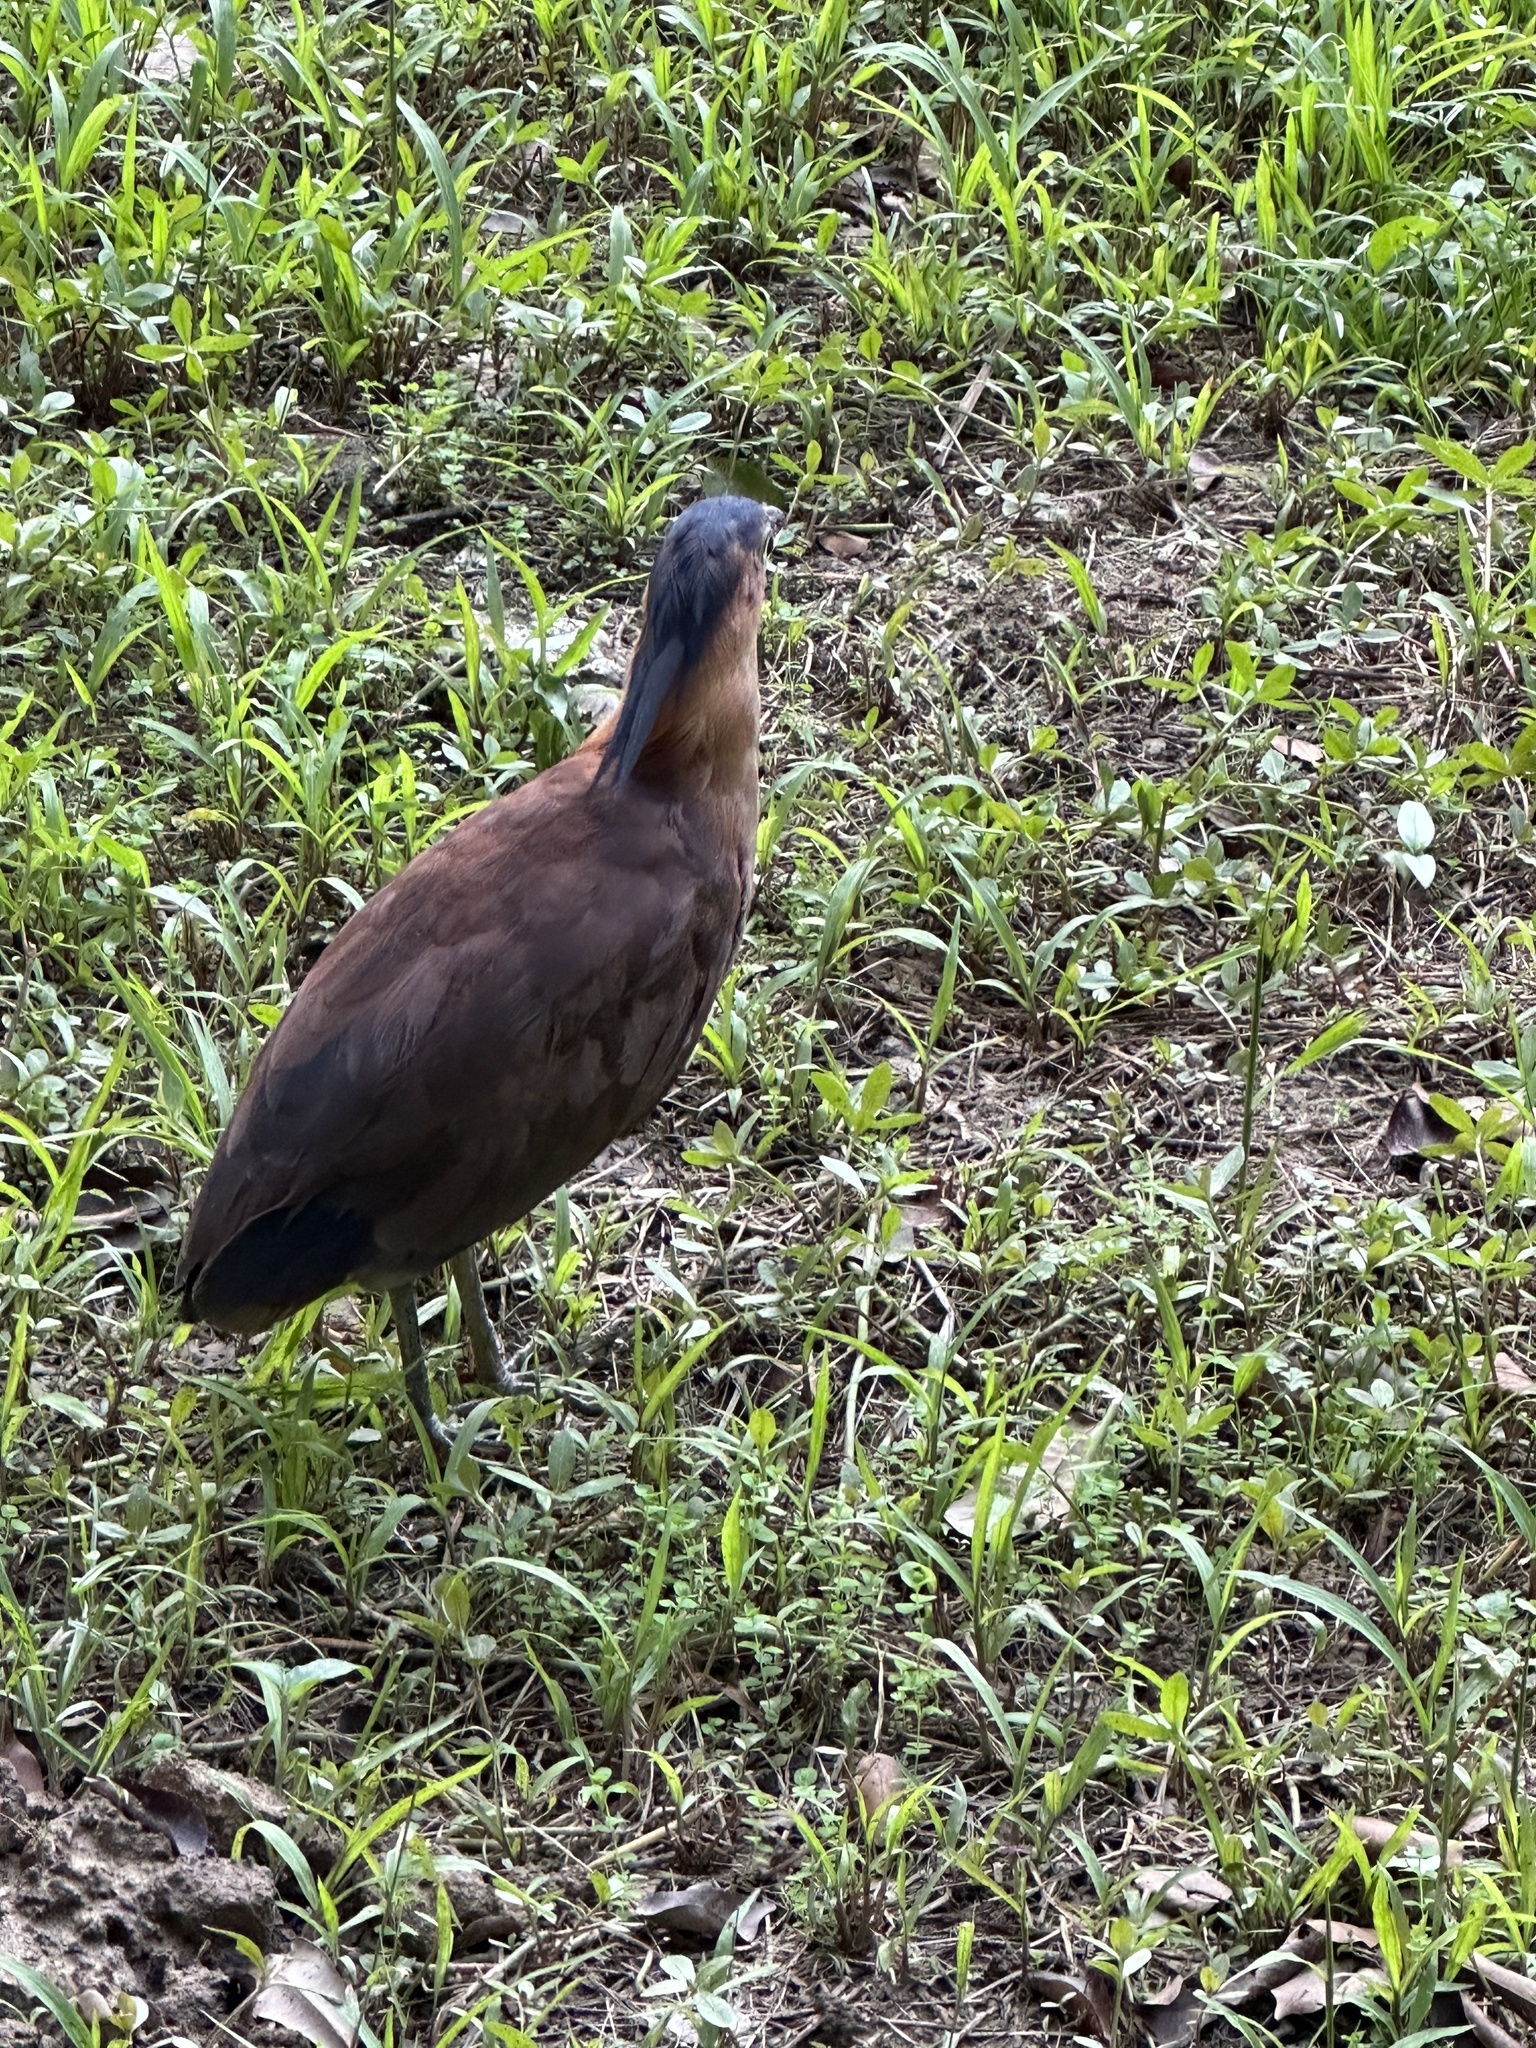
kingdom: Animalia
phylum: Chordata
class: Aves
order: Pelecaniformes
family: Ardeidae
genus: Gorsachius
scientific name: Gorsachius melanolophus
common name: Malayan night heron
